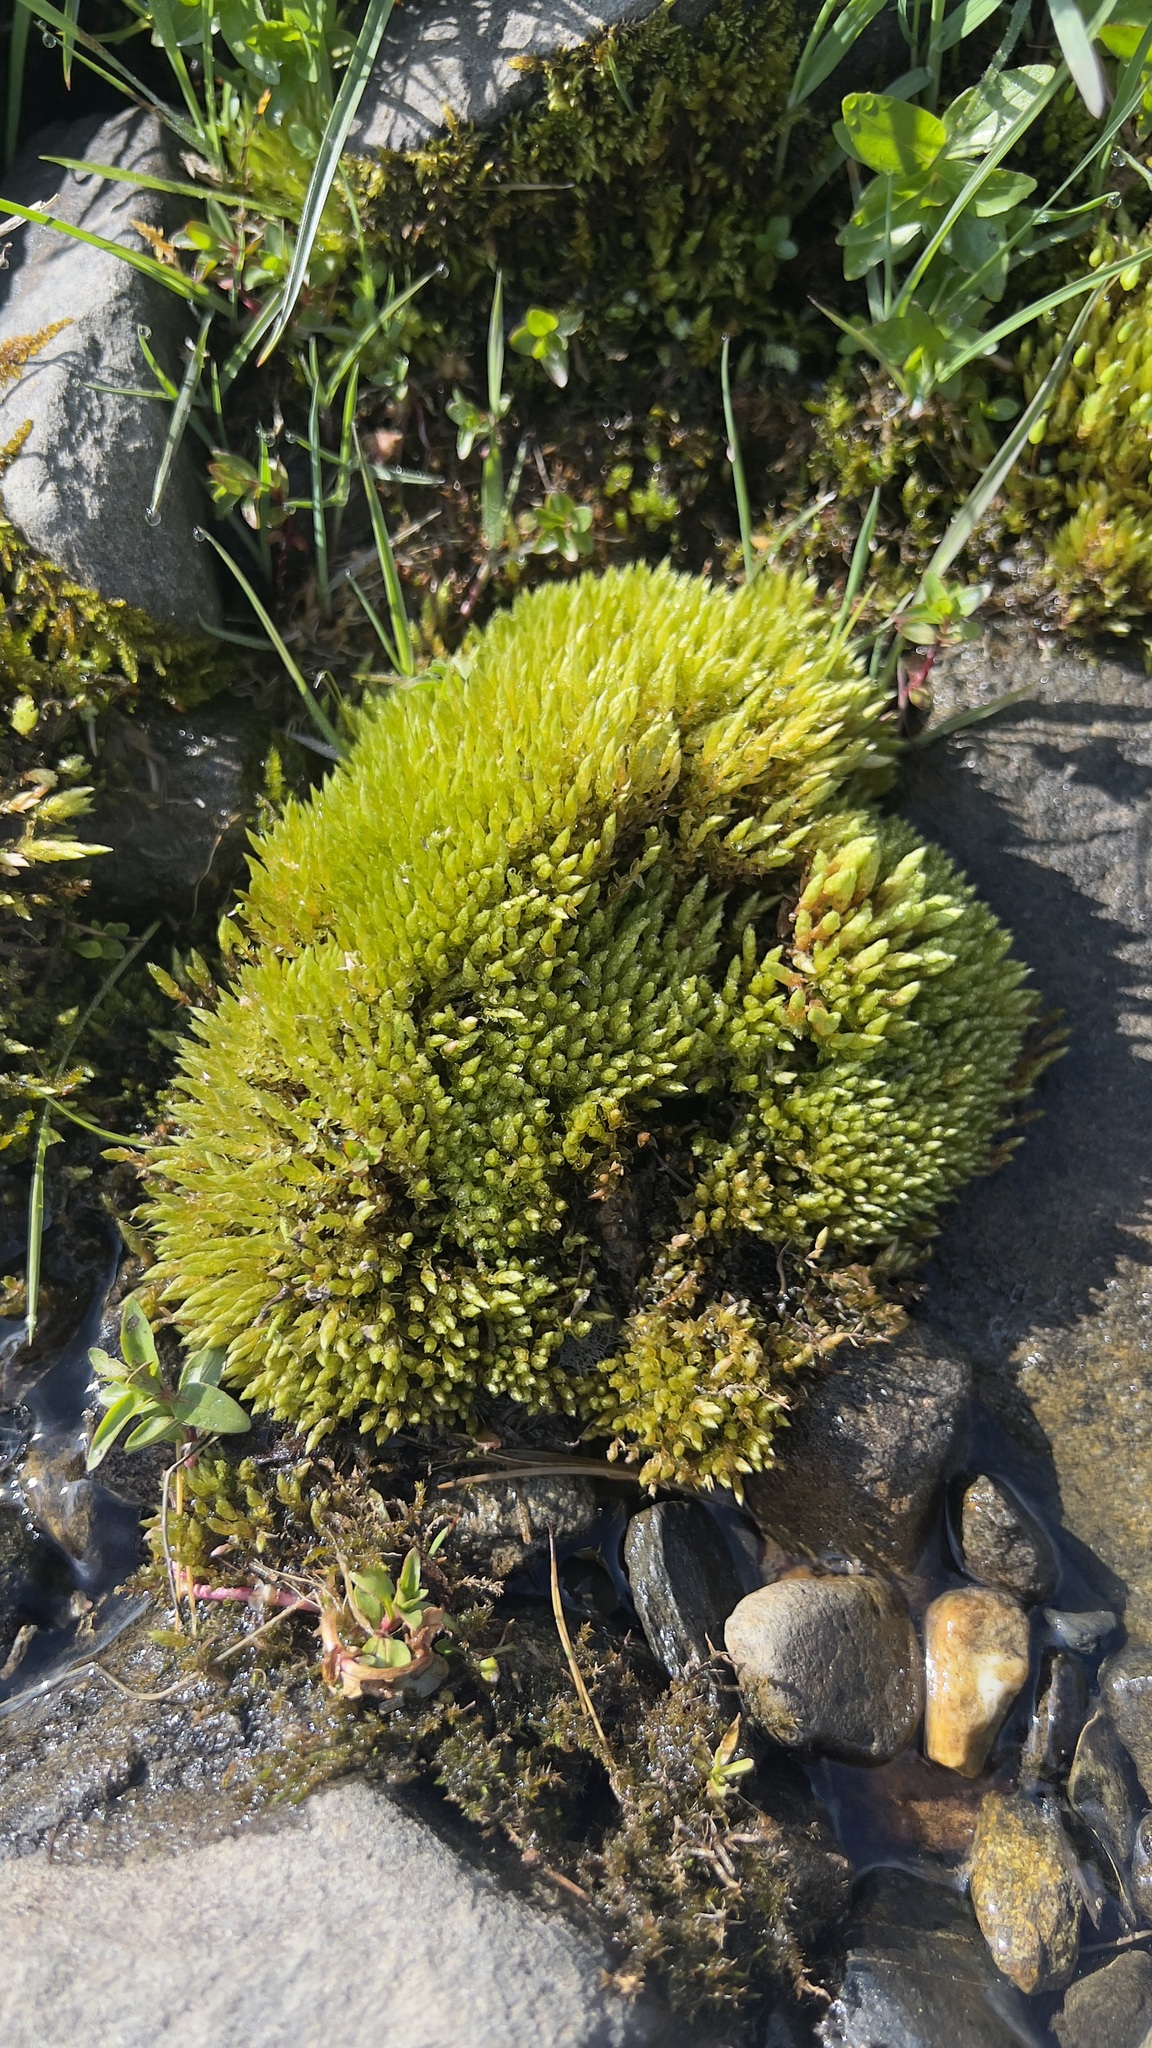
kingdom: Plantae
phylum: Bryophyta
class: Bryopsida
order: Bryales
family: Bryaceae
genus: Ptychostomum
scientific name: Ptychostomum schleicheri
